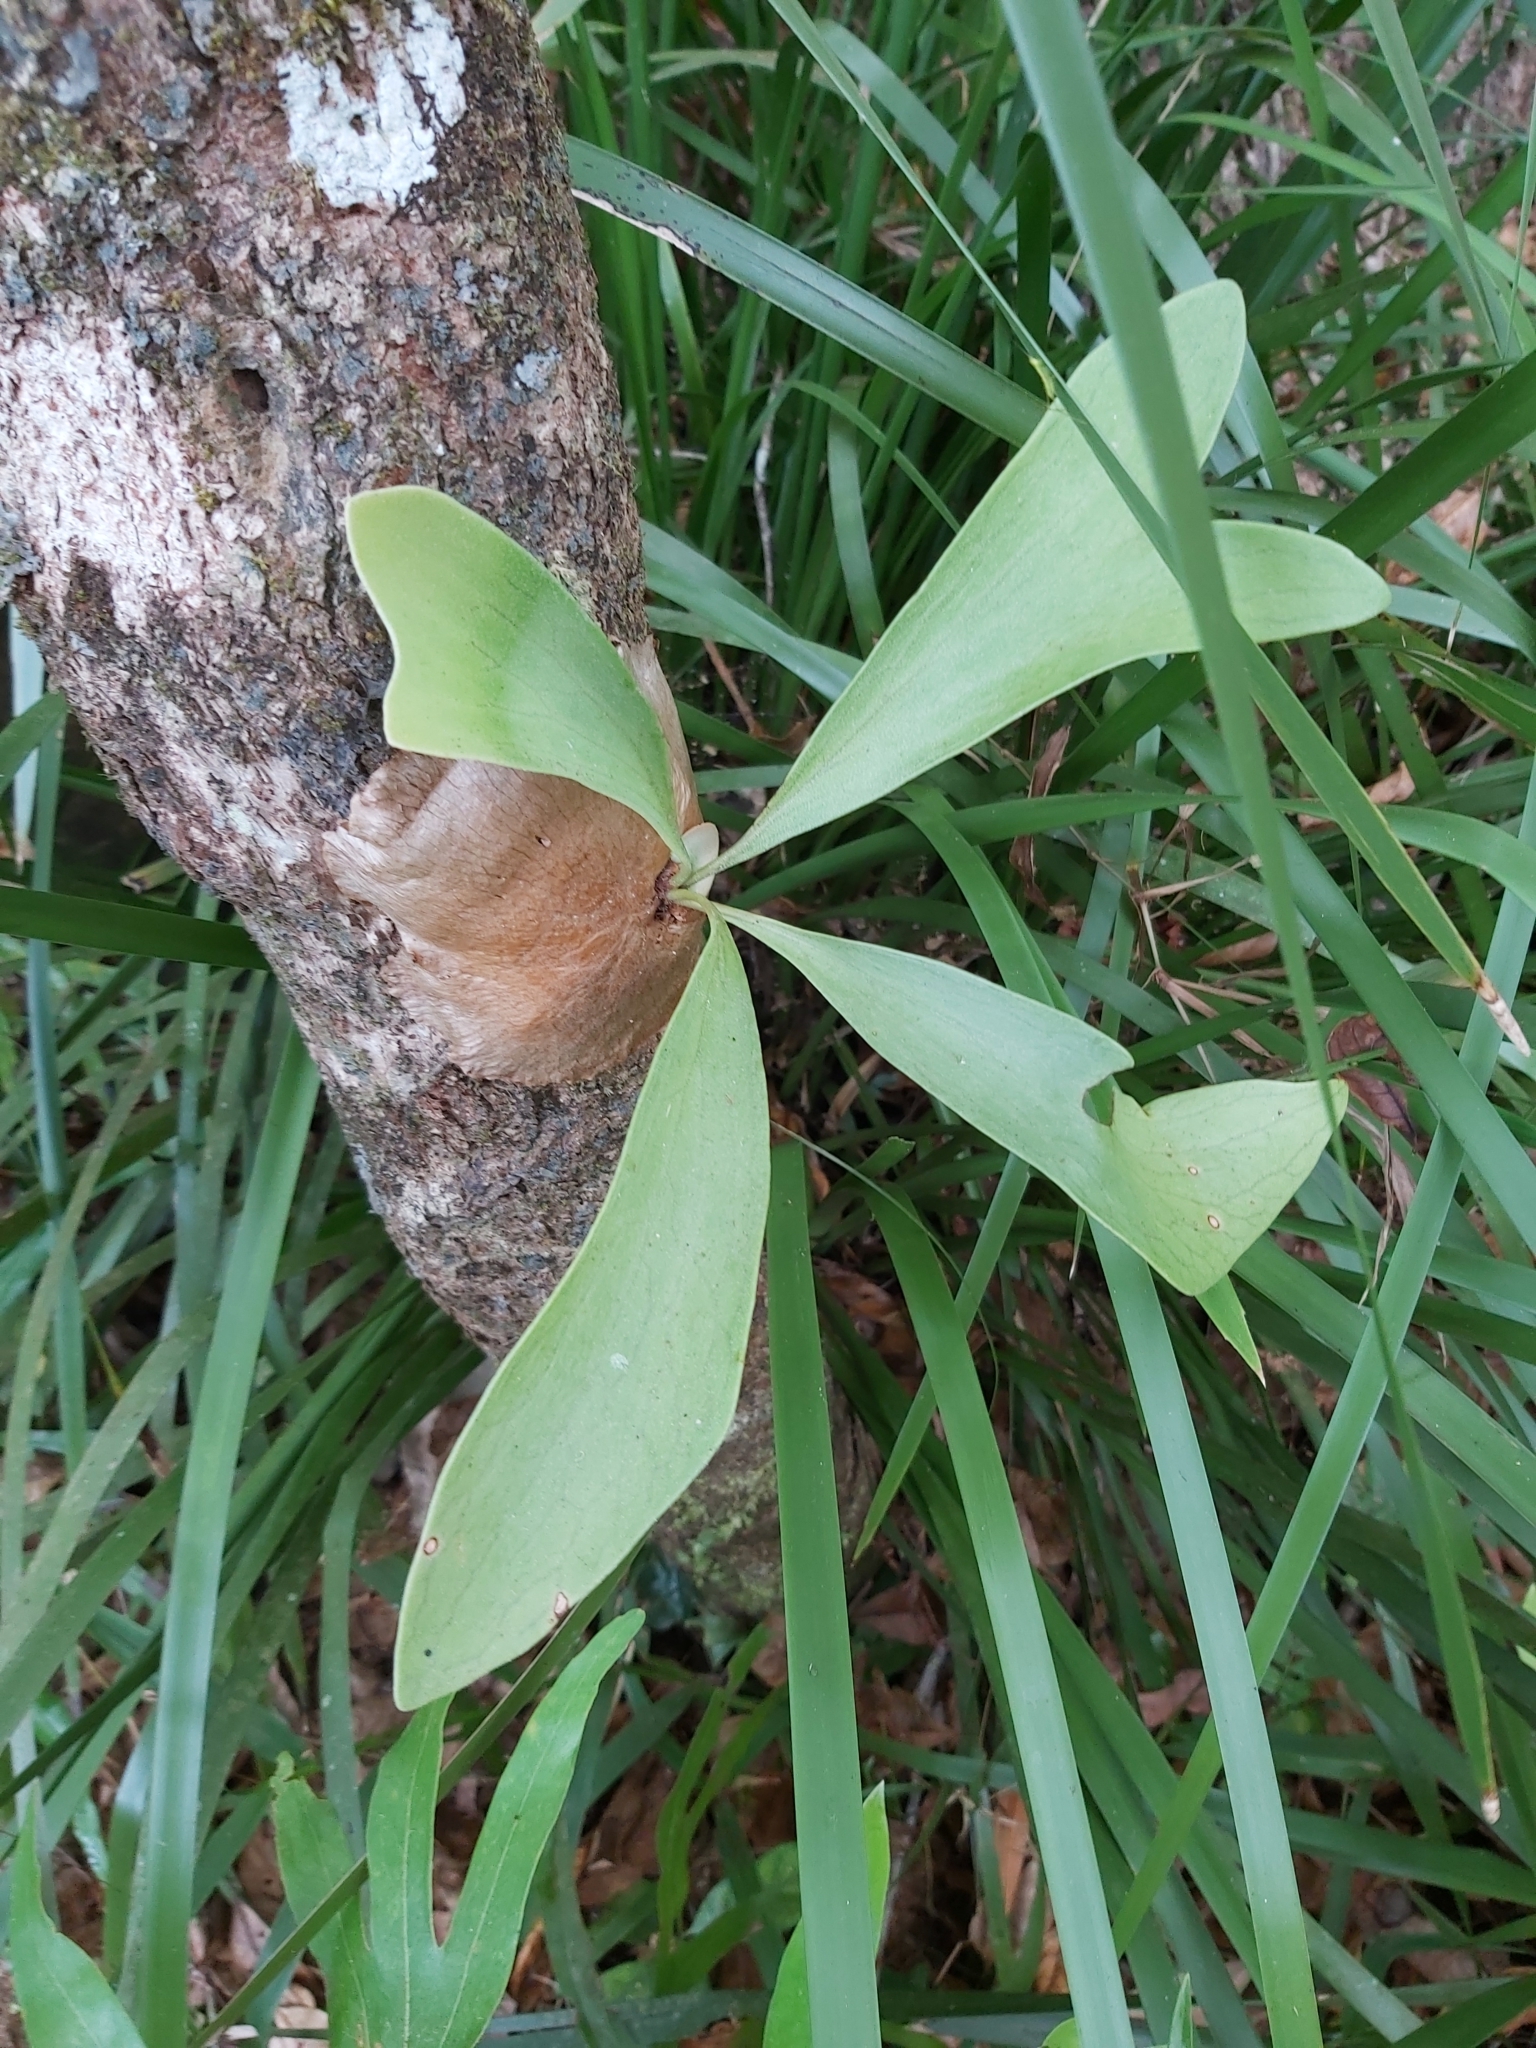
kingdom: Plantae
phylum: Tracheophyta
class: Polypodiopsida
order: Polypodiales
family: Polypodiaceae
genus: Platycerium
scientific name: Platycerium hillii
